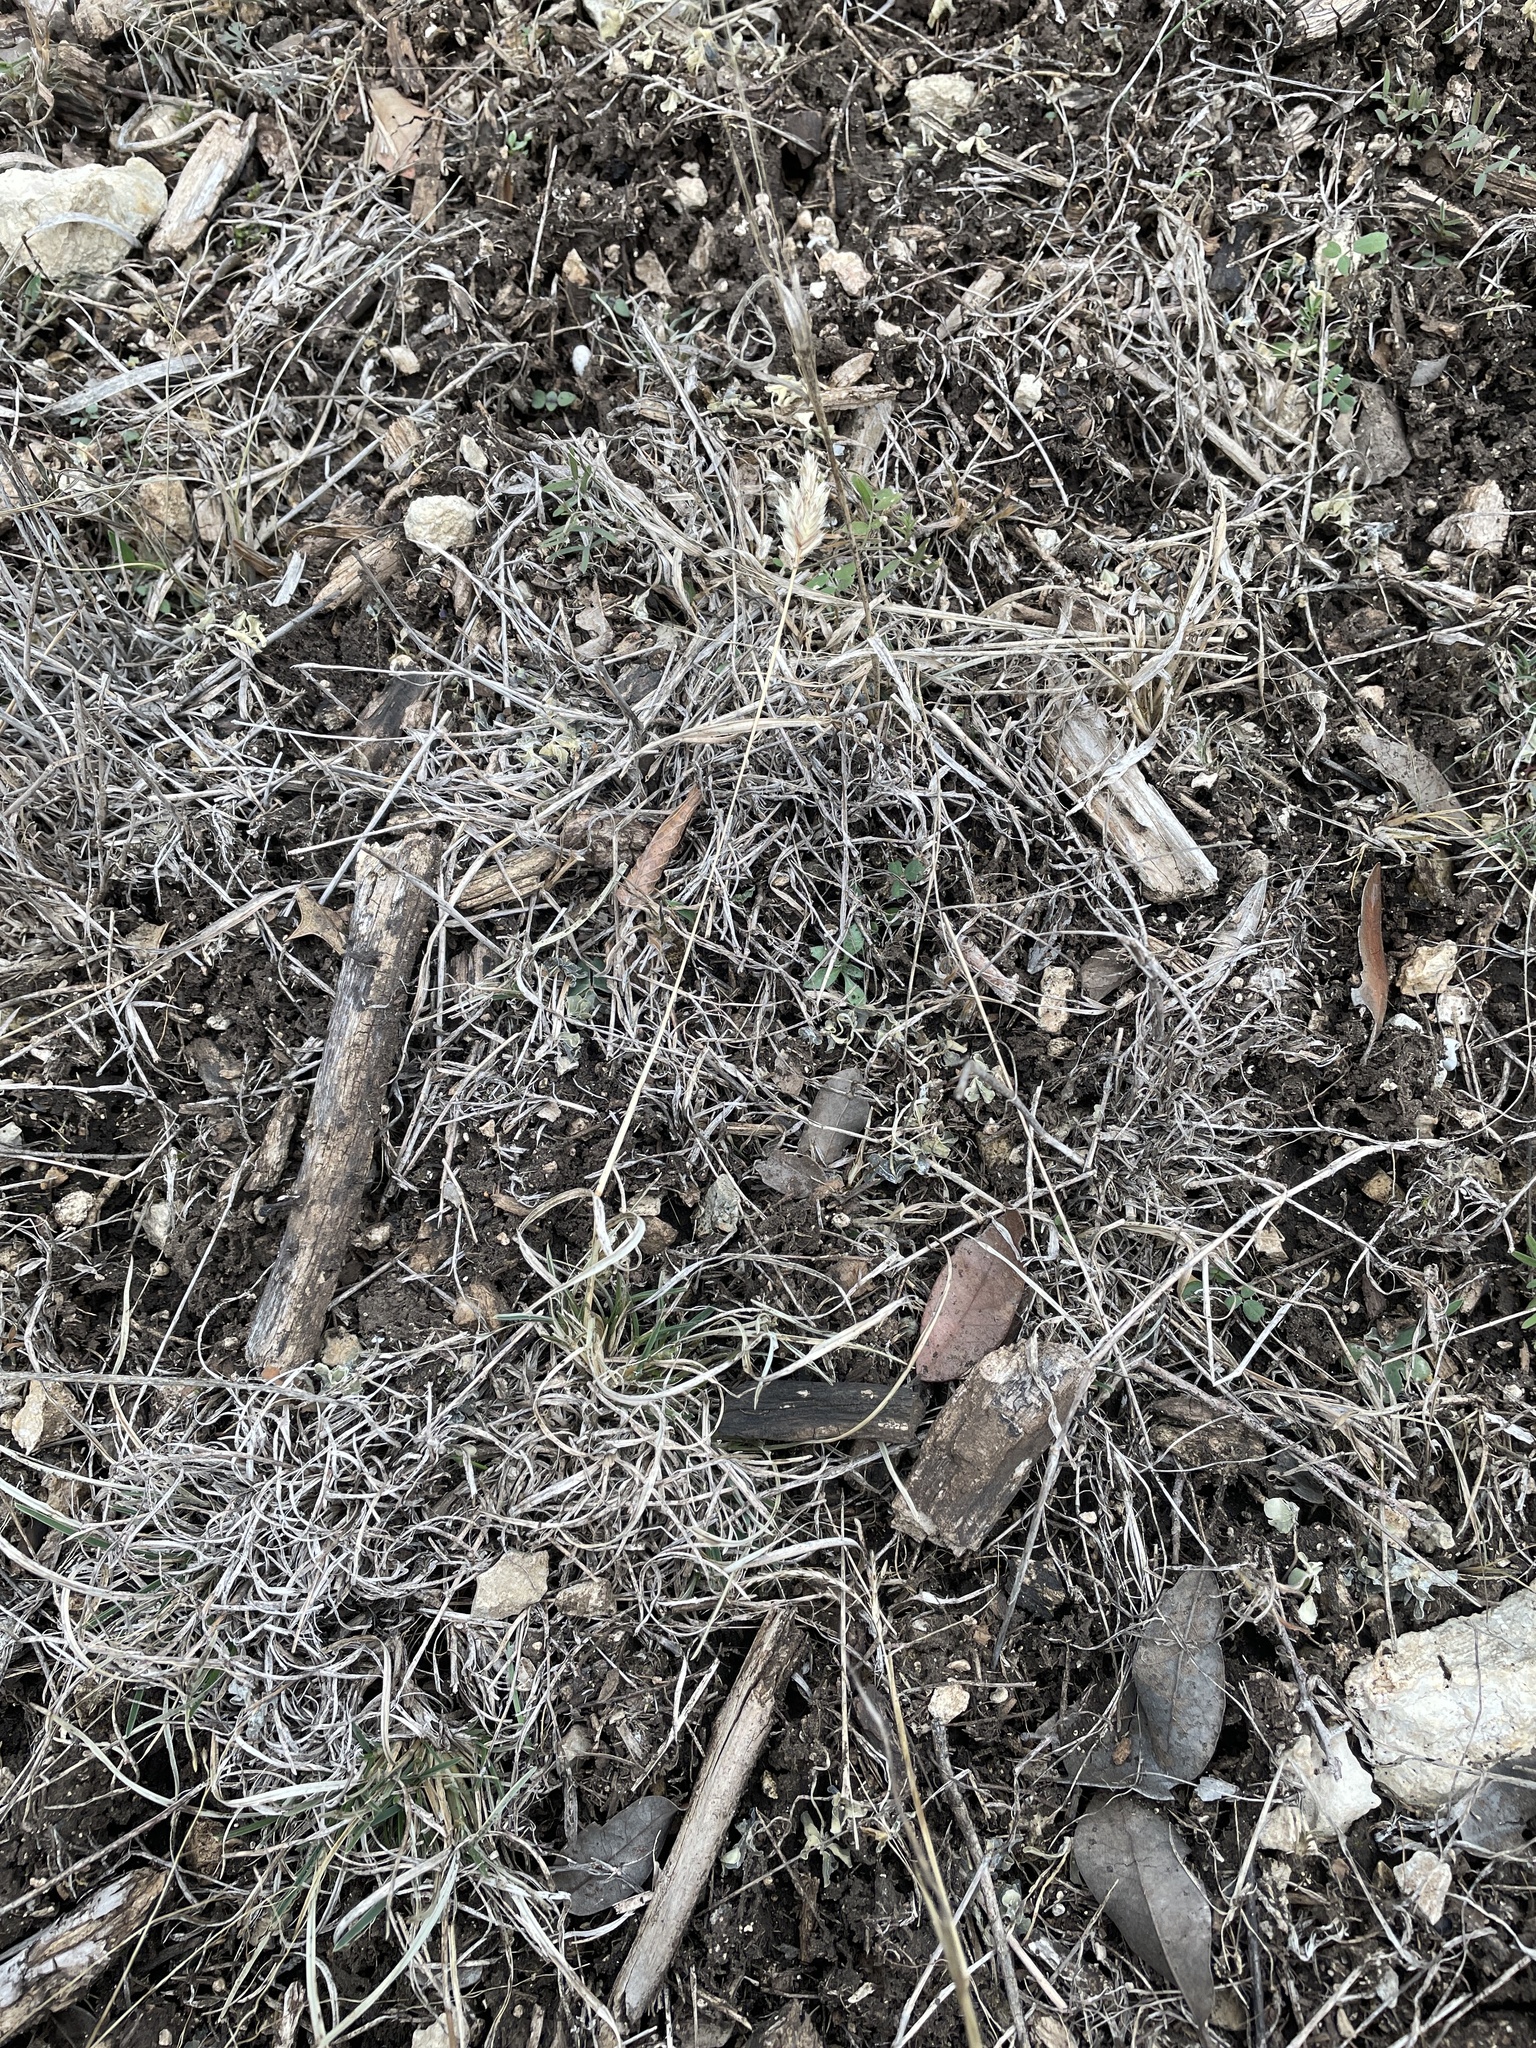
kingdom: Plantae
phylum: Tracheophyta
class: Liliopsida
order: Poales
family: Poaceae
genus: Erioneuron
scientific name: Erioneuron pilosum
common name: Hairy woolly grass
